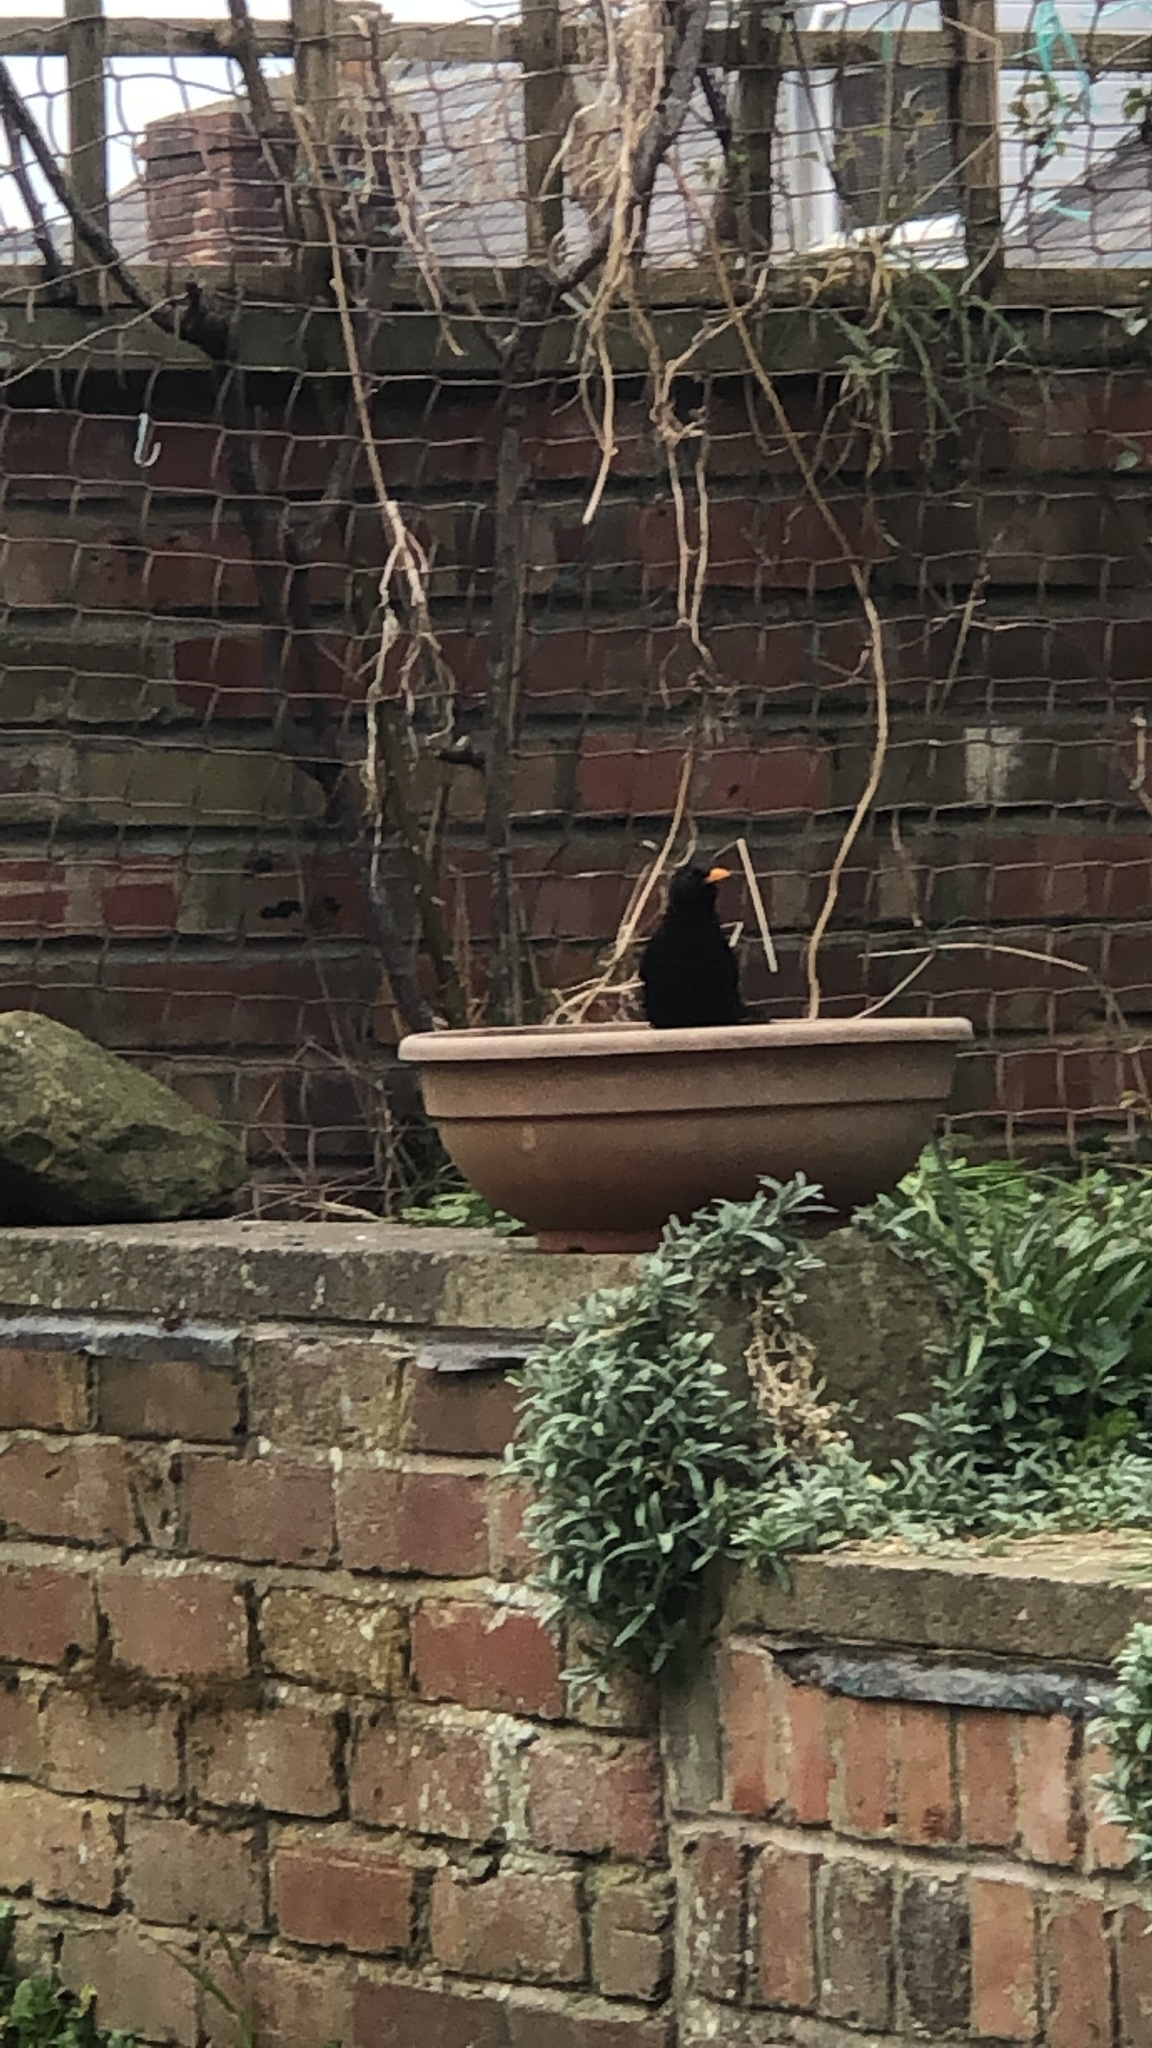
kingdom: Animalia
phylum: Chordata
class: Aves
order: Passeriformes
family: Turdidae
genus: Turdus
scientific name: Turdus merula
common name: Common blackbird
